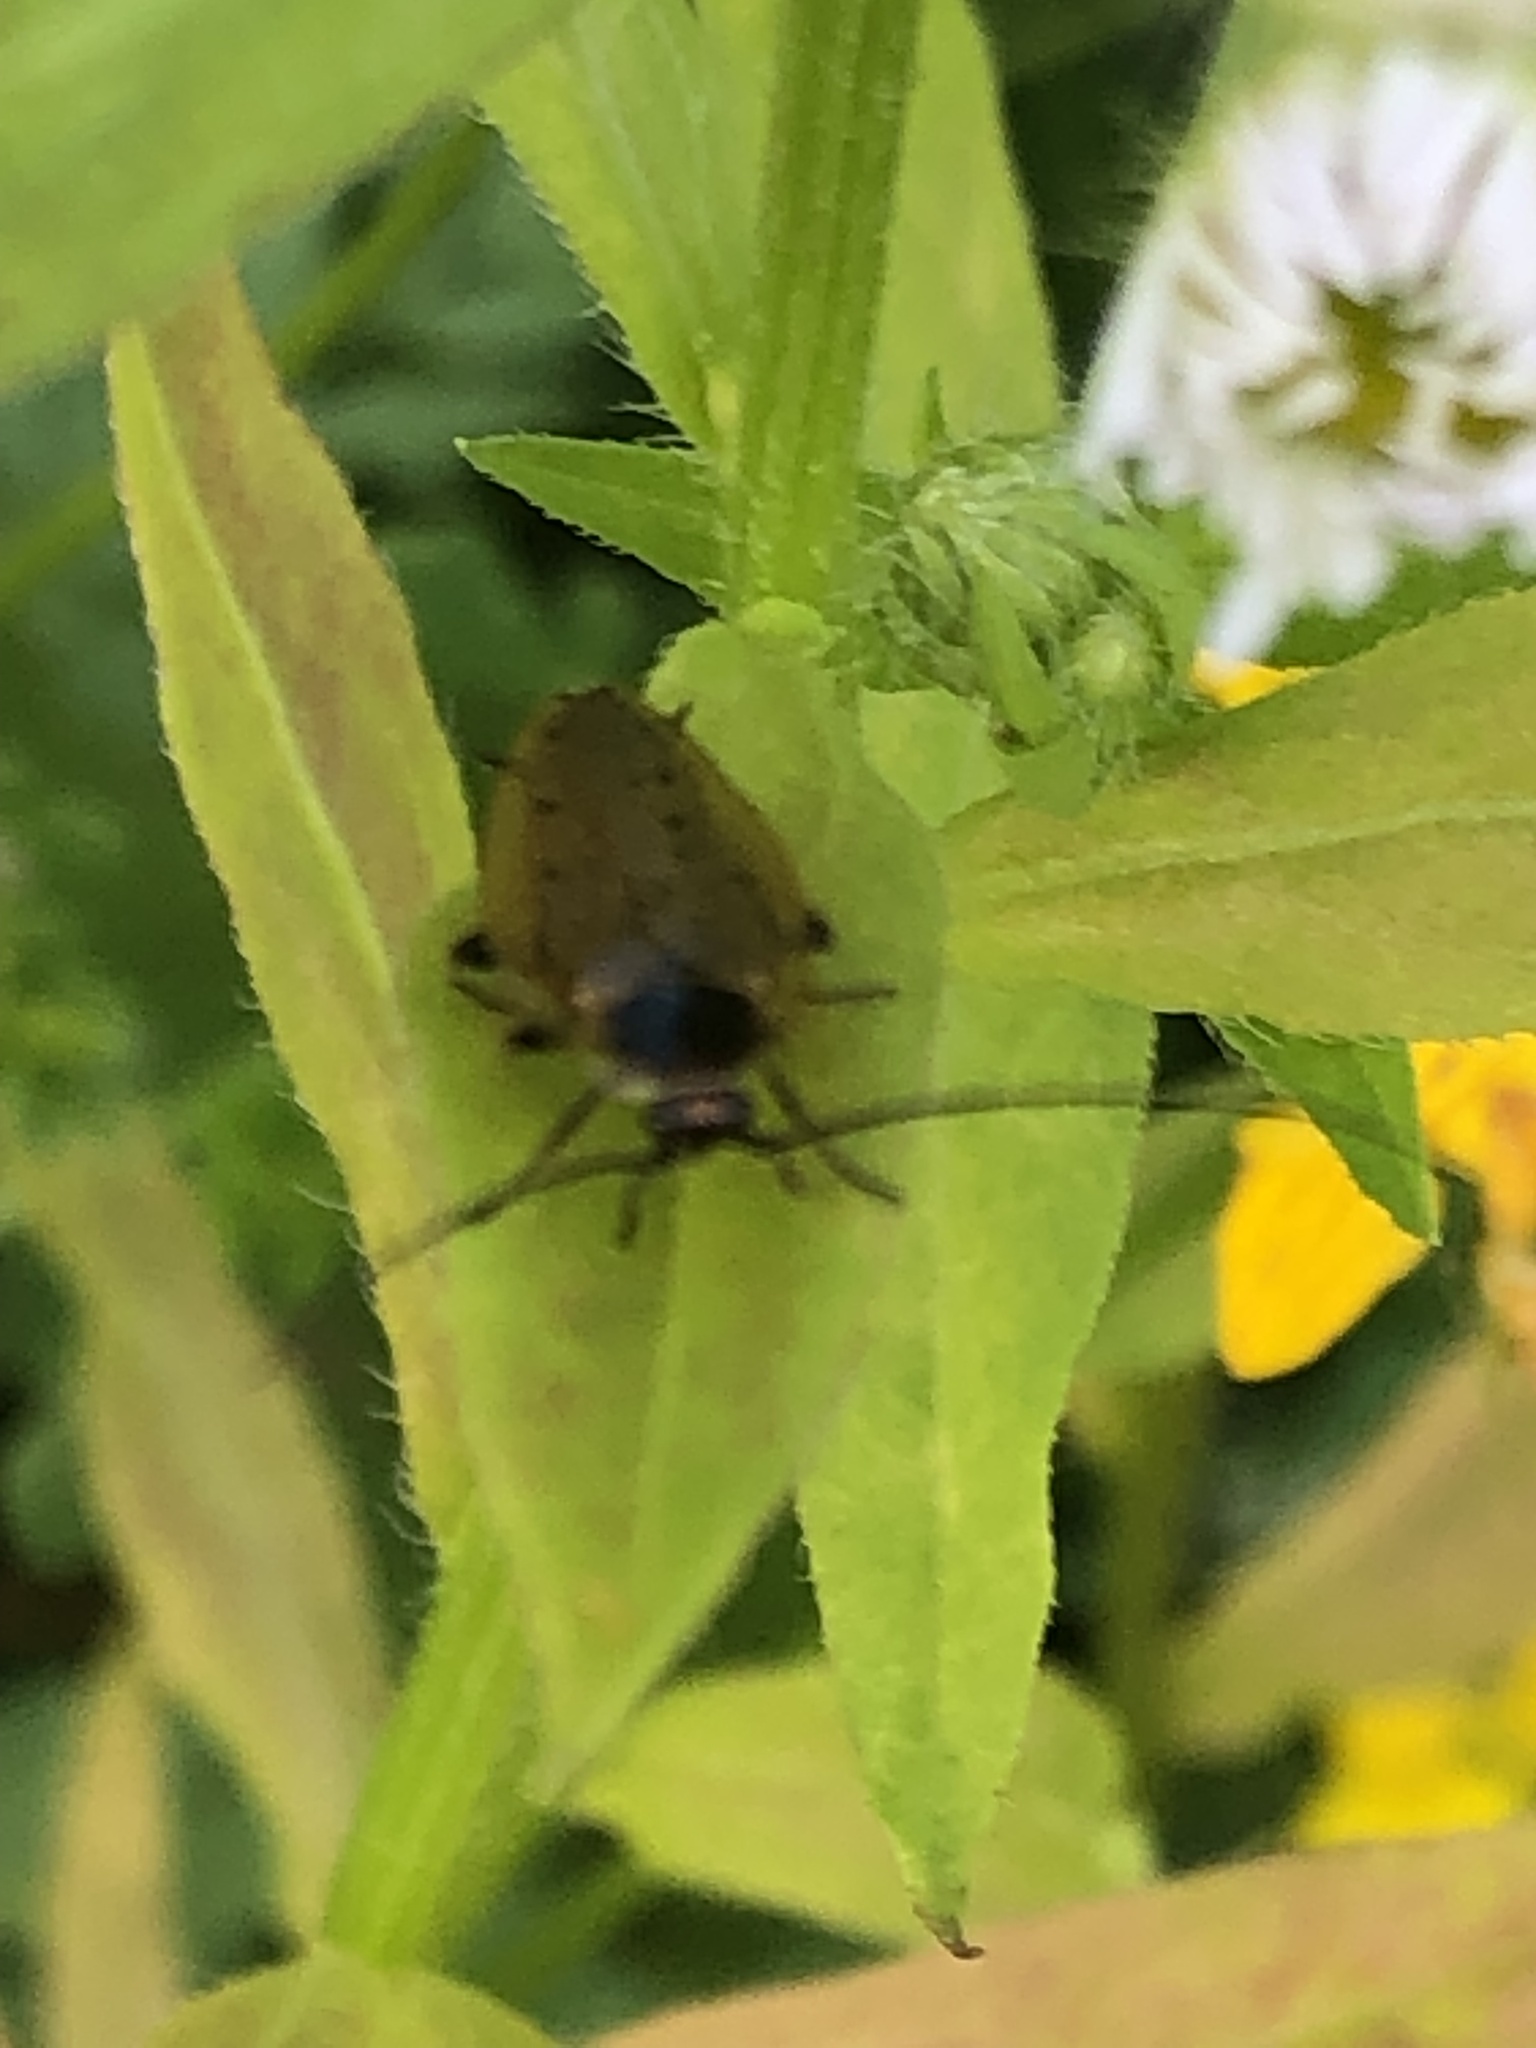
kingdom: Animalia
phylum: Arthropoda
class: Insecta
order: Blattodea
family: Ectobiidae
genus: Ectobius
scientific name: Ectobius lapponicus
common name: Dusky cockroach
